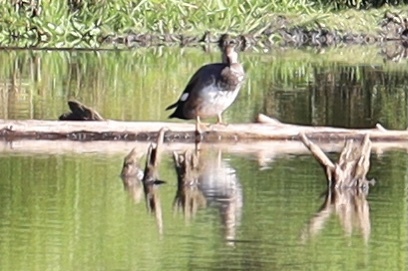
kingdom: Animalia
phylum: Chordata
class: Aves
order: Anseriformes
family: Anatidae
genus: Mareca
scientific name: Mareca strepera
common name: Gadwall
